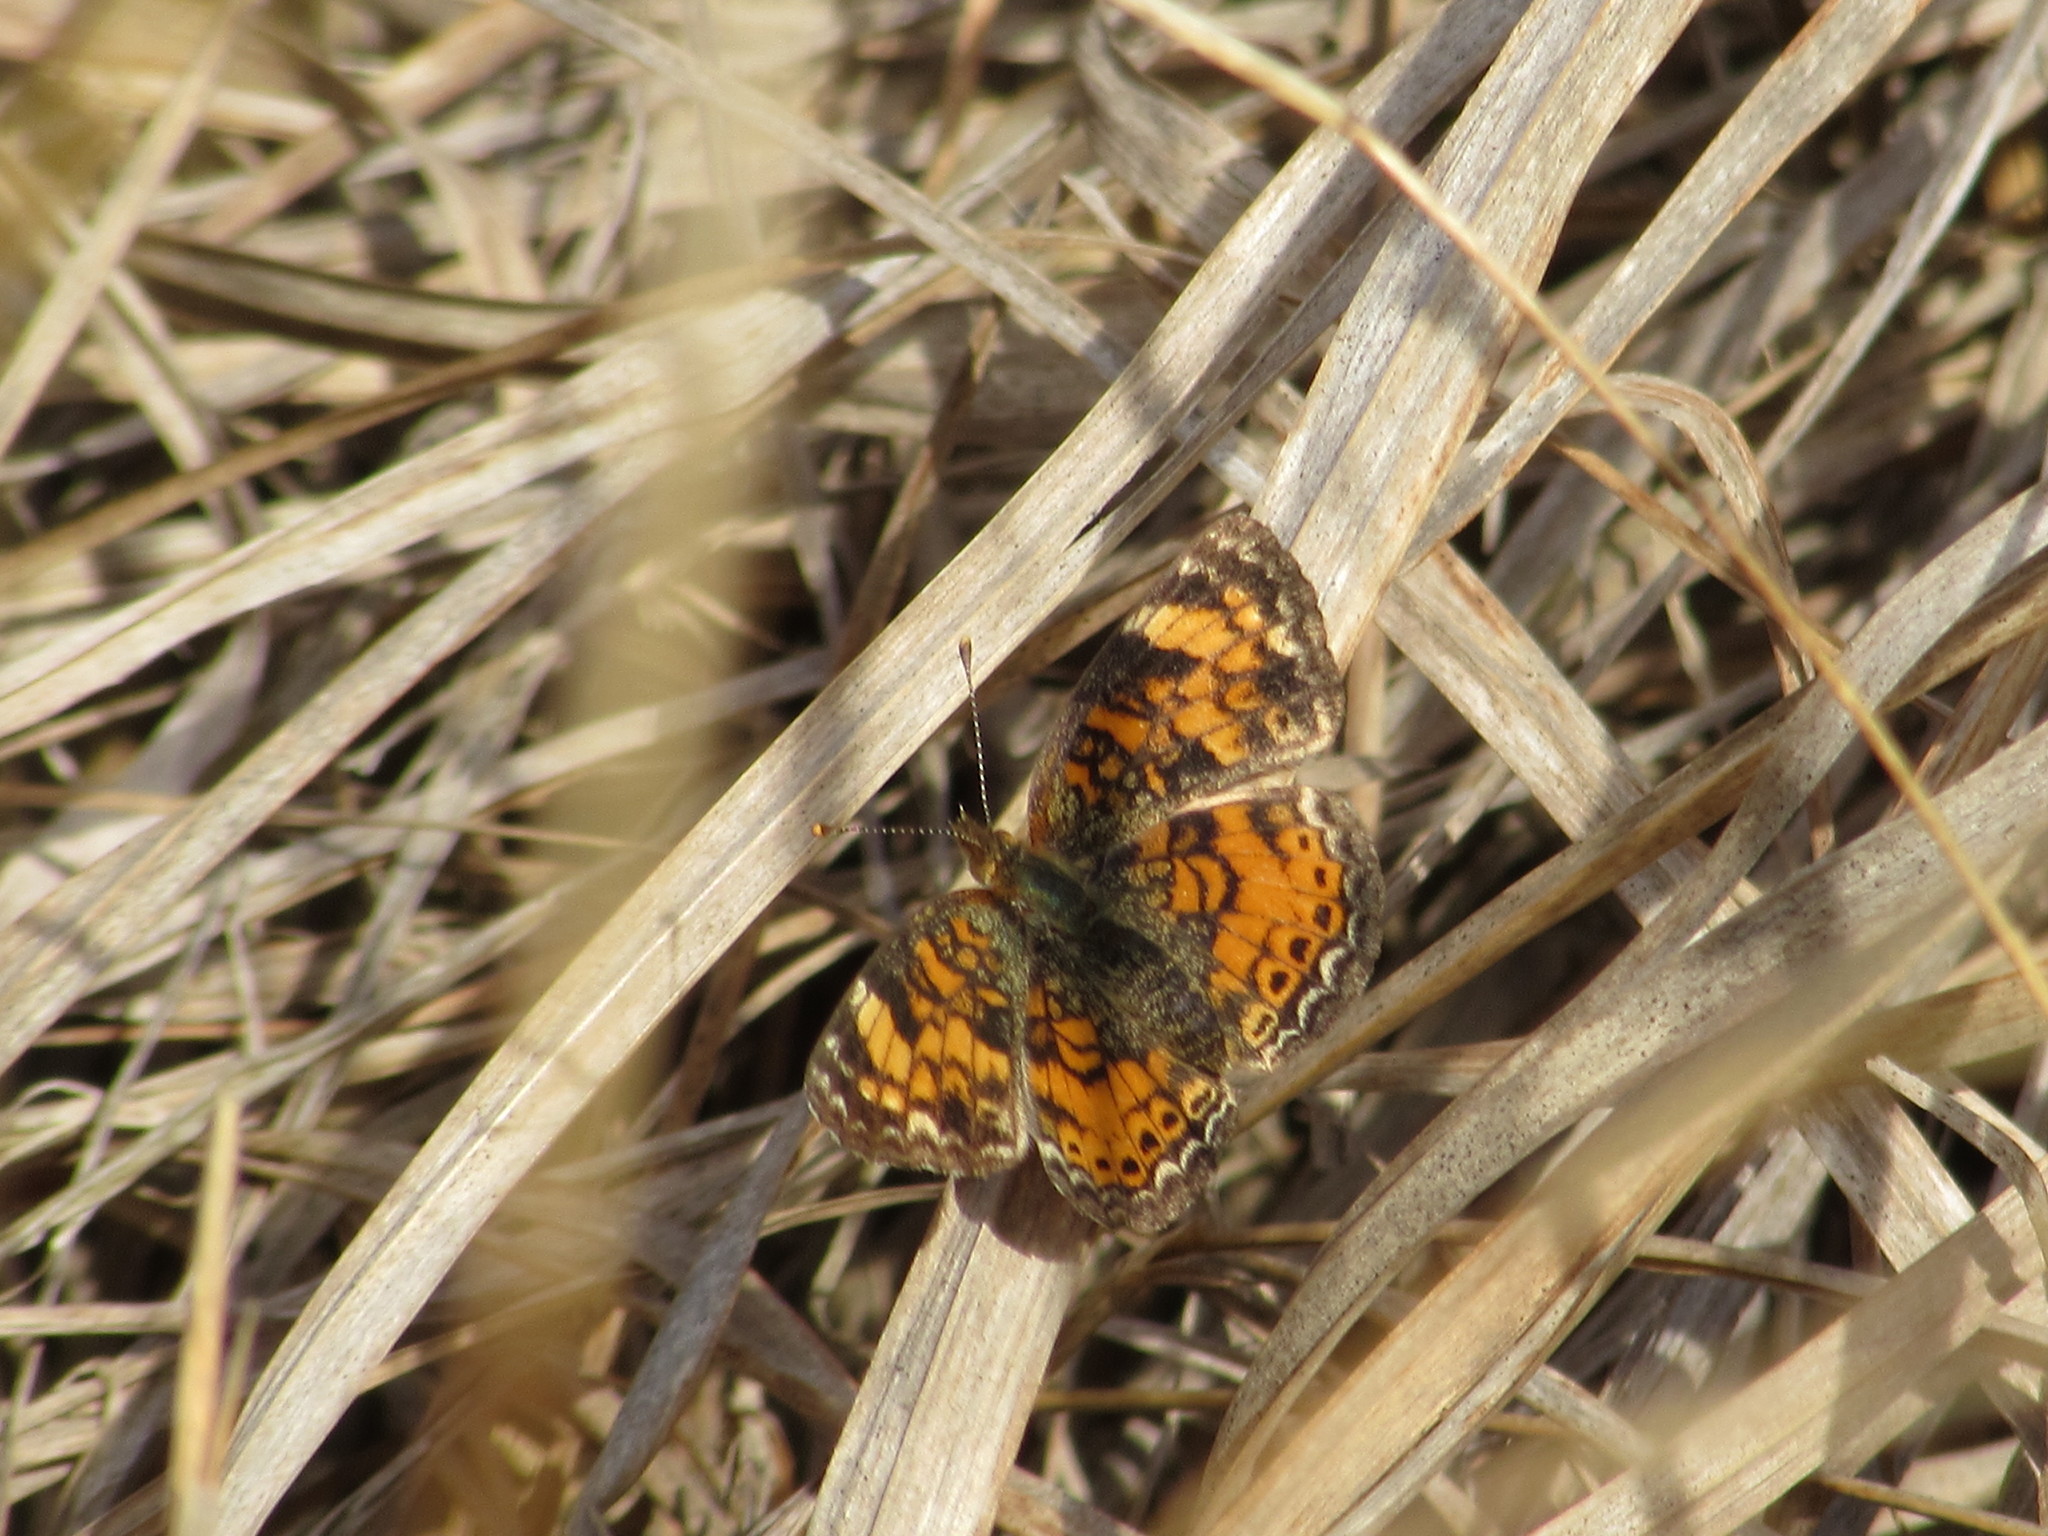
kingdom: Animalia
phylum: Arthropoda
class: Insecta
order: Lepidoptera
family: Nymphalidae
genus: Phyciodes
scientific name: Phyciodes tharos
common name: Pearl crescent
